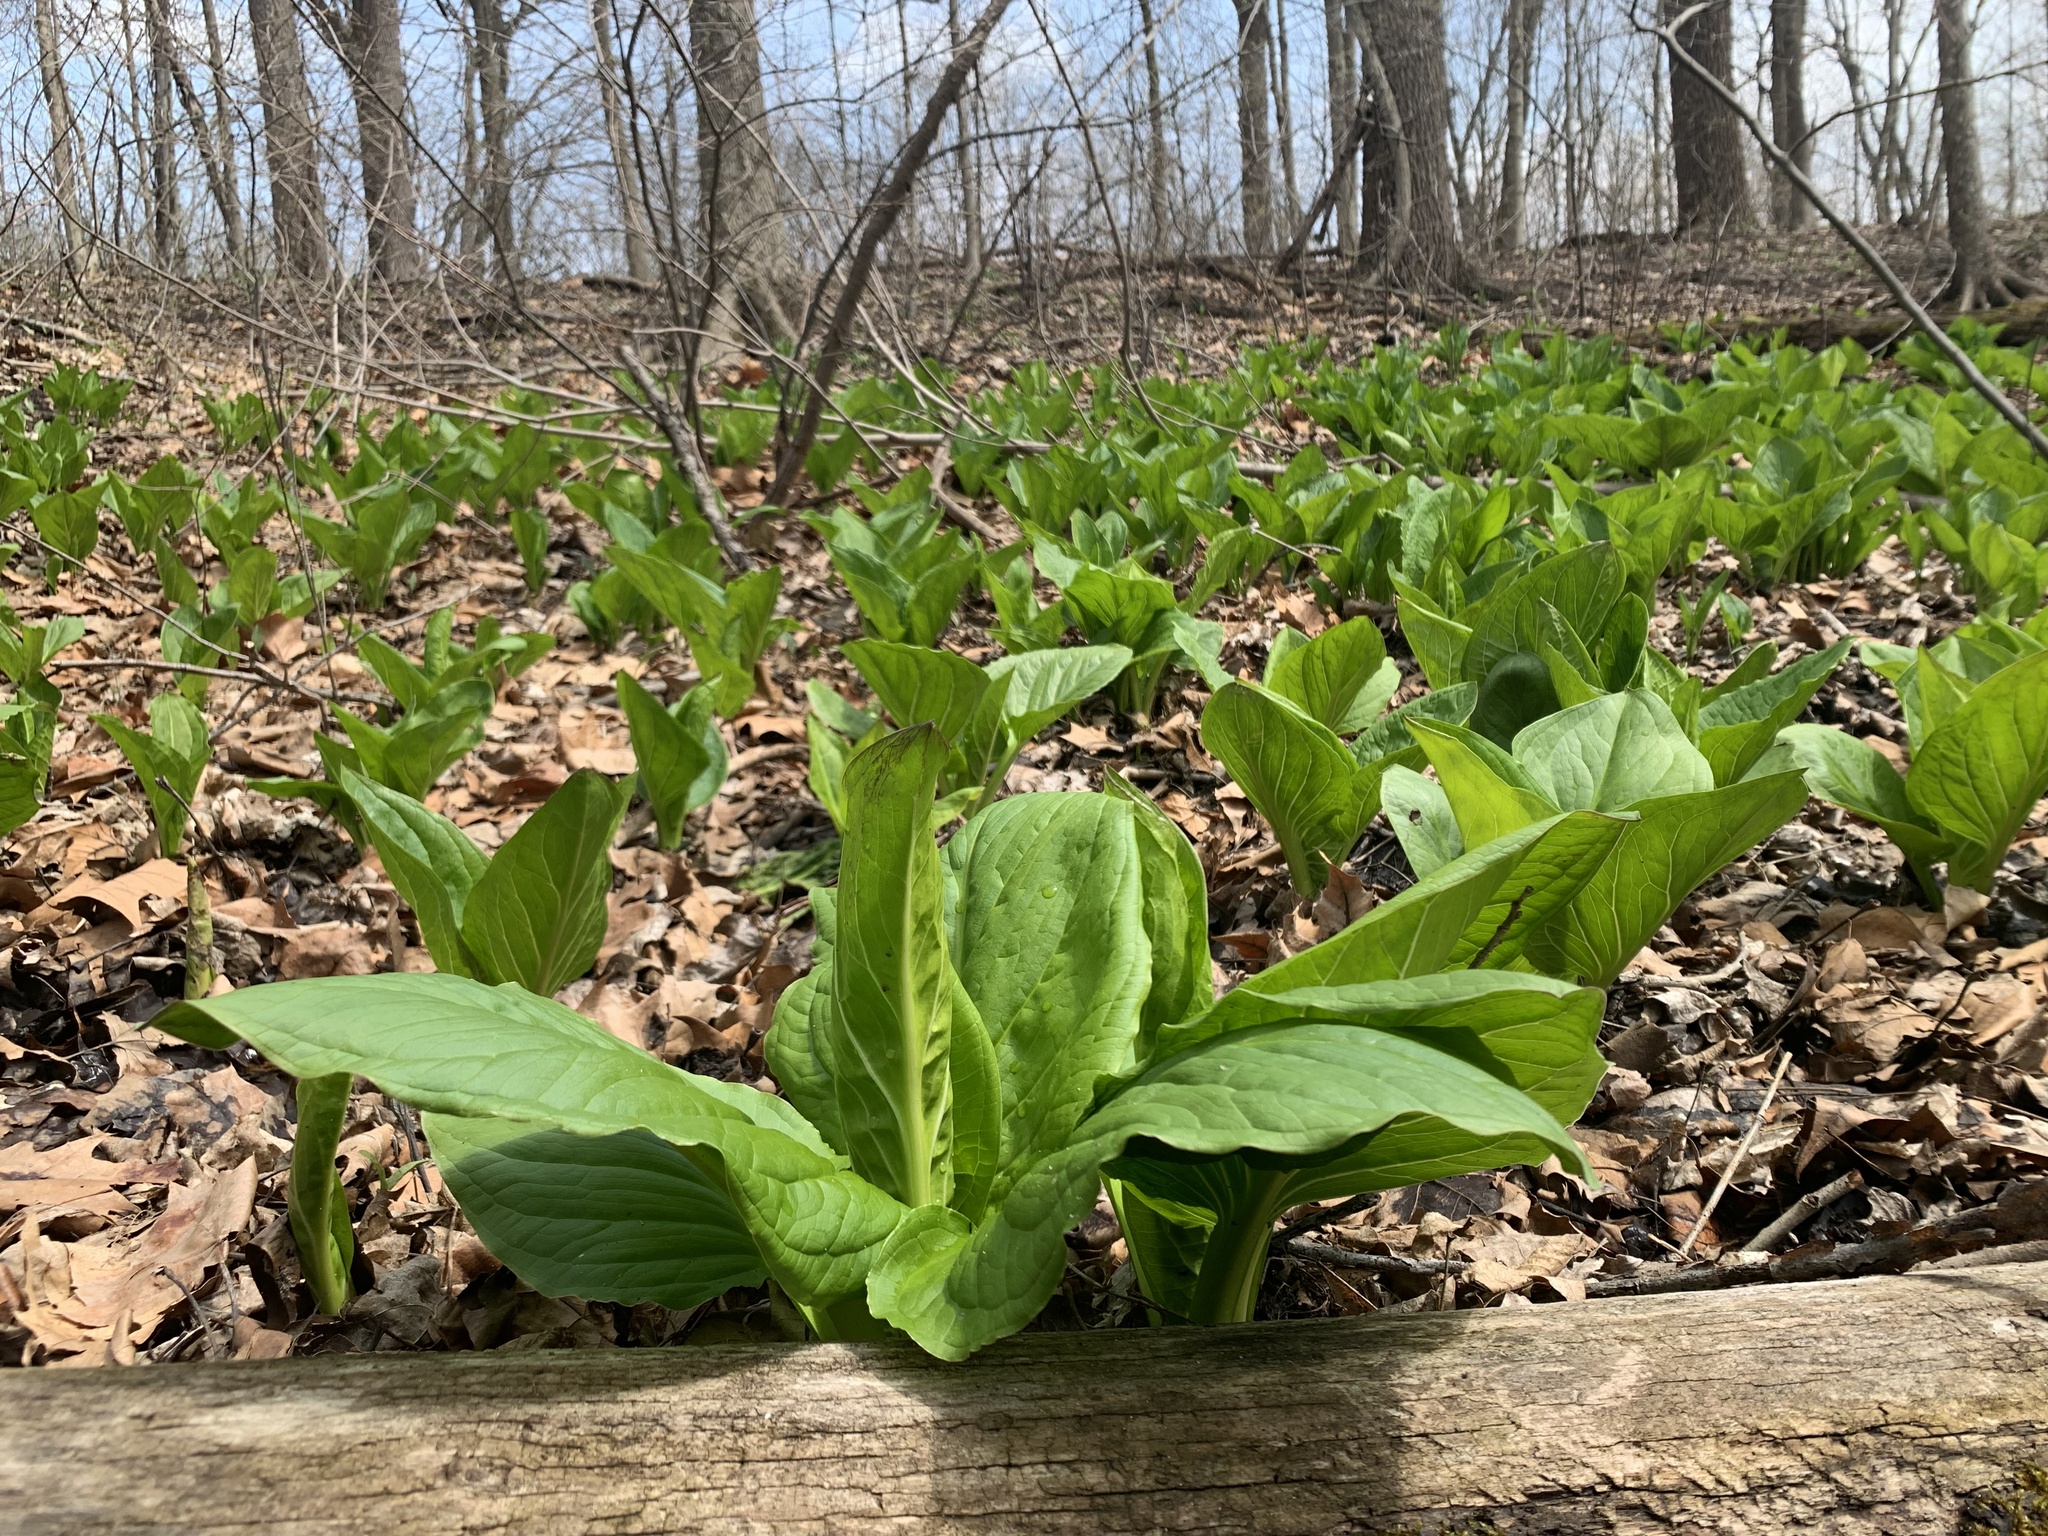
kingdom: Plantae
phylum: Tracheophyta
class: Liliopsida
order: Alismatales
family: Araceae
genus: Symplocarpus
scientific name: Symplocarpus foetidus
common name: Eastern skunk cabbage
